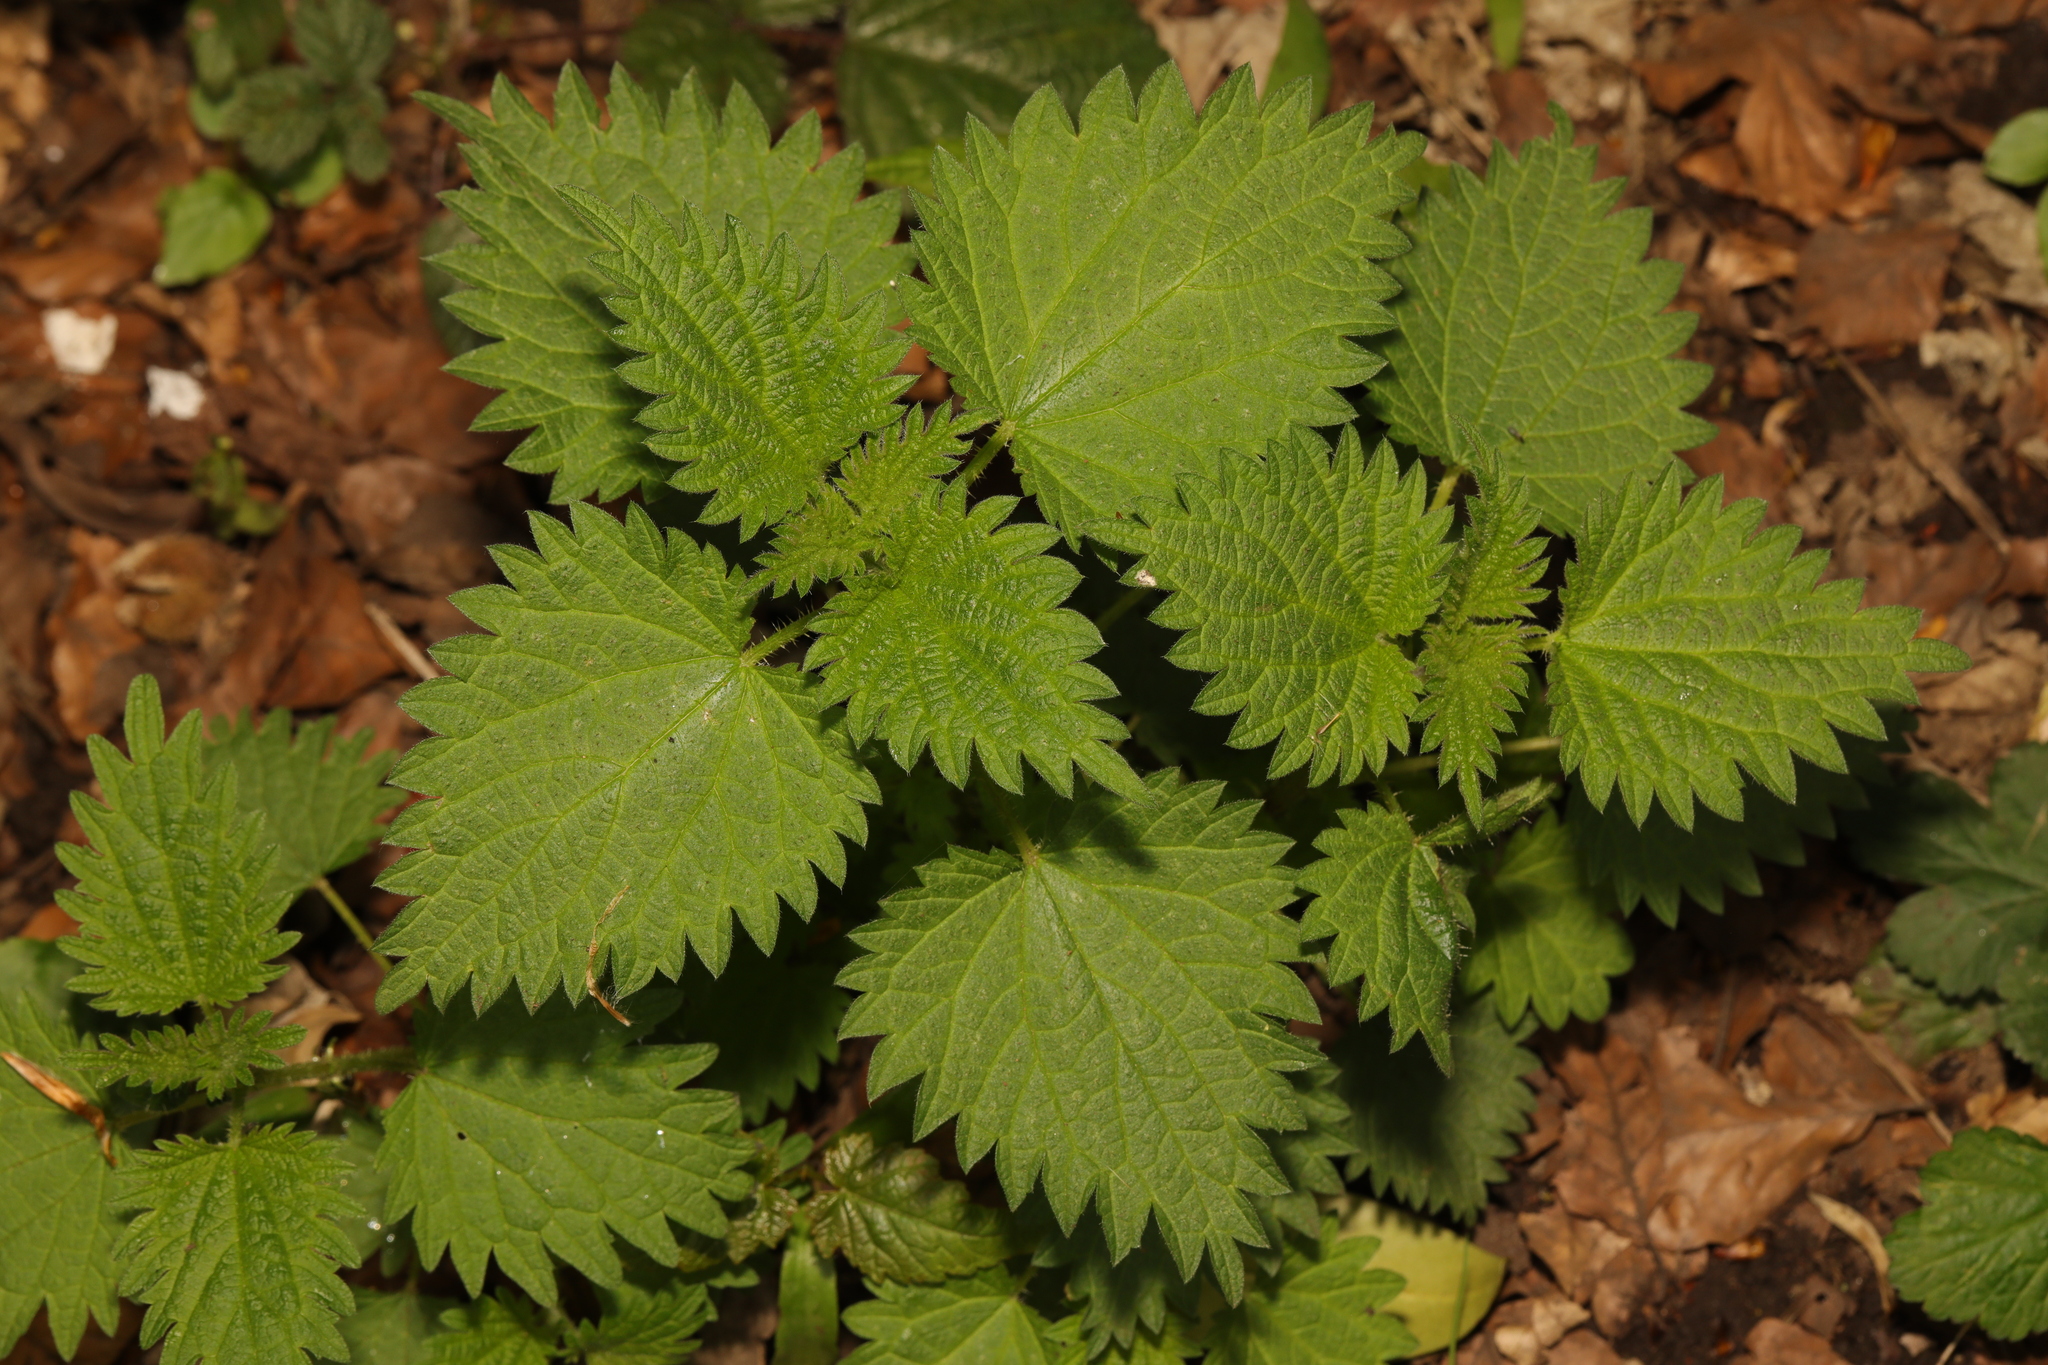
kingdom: Plantae
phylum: Tracheophyta
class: Magnoliopsida
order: Rosales
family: Urticaceae
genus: Urtica
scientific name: Urtica dioica
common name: Common nettle
